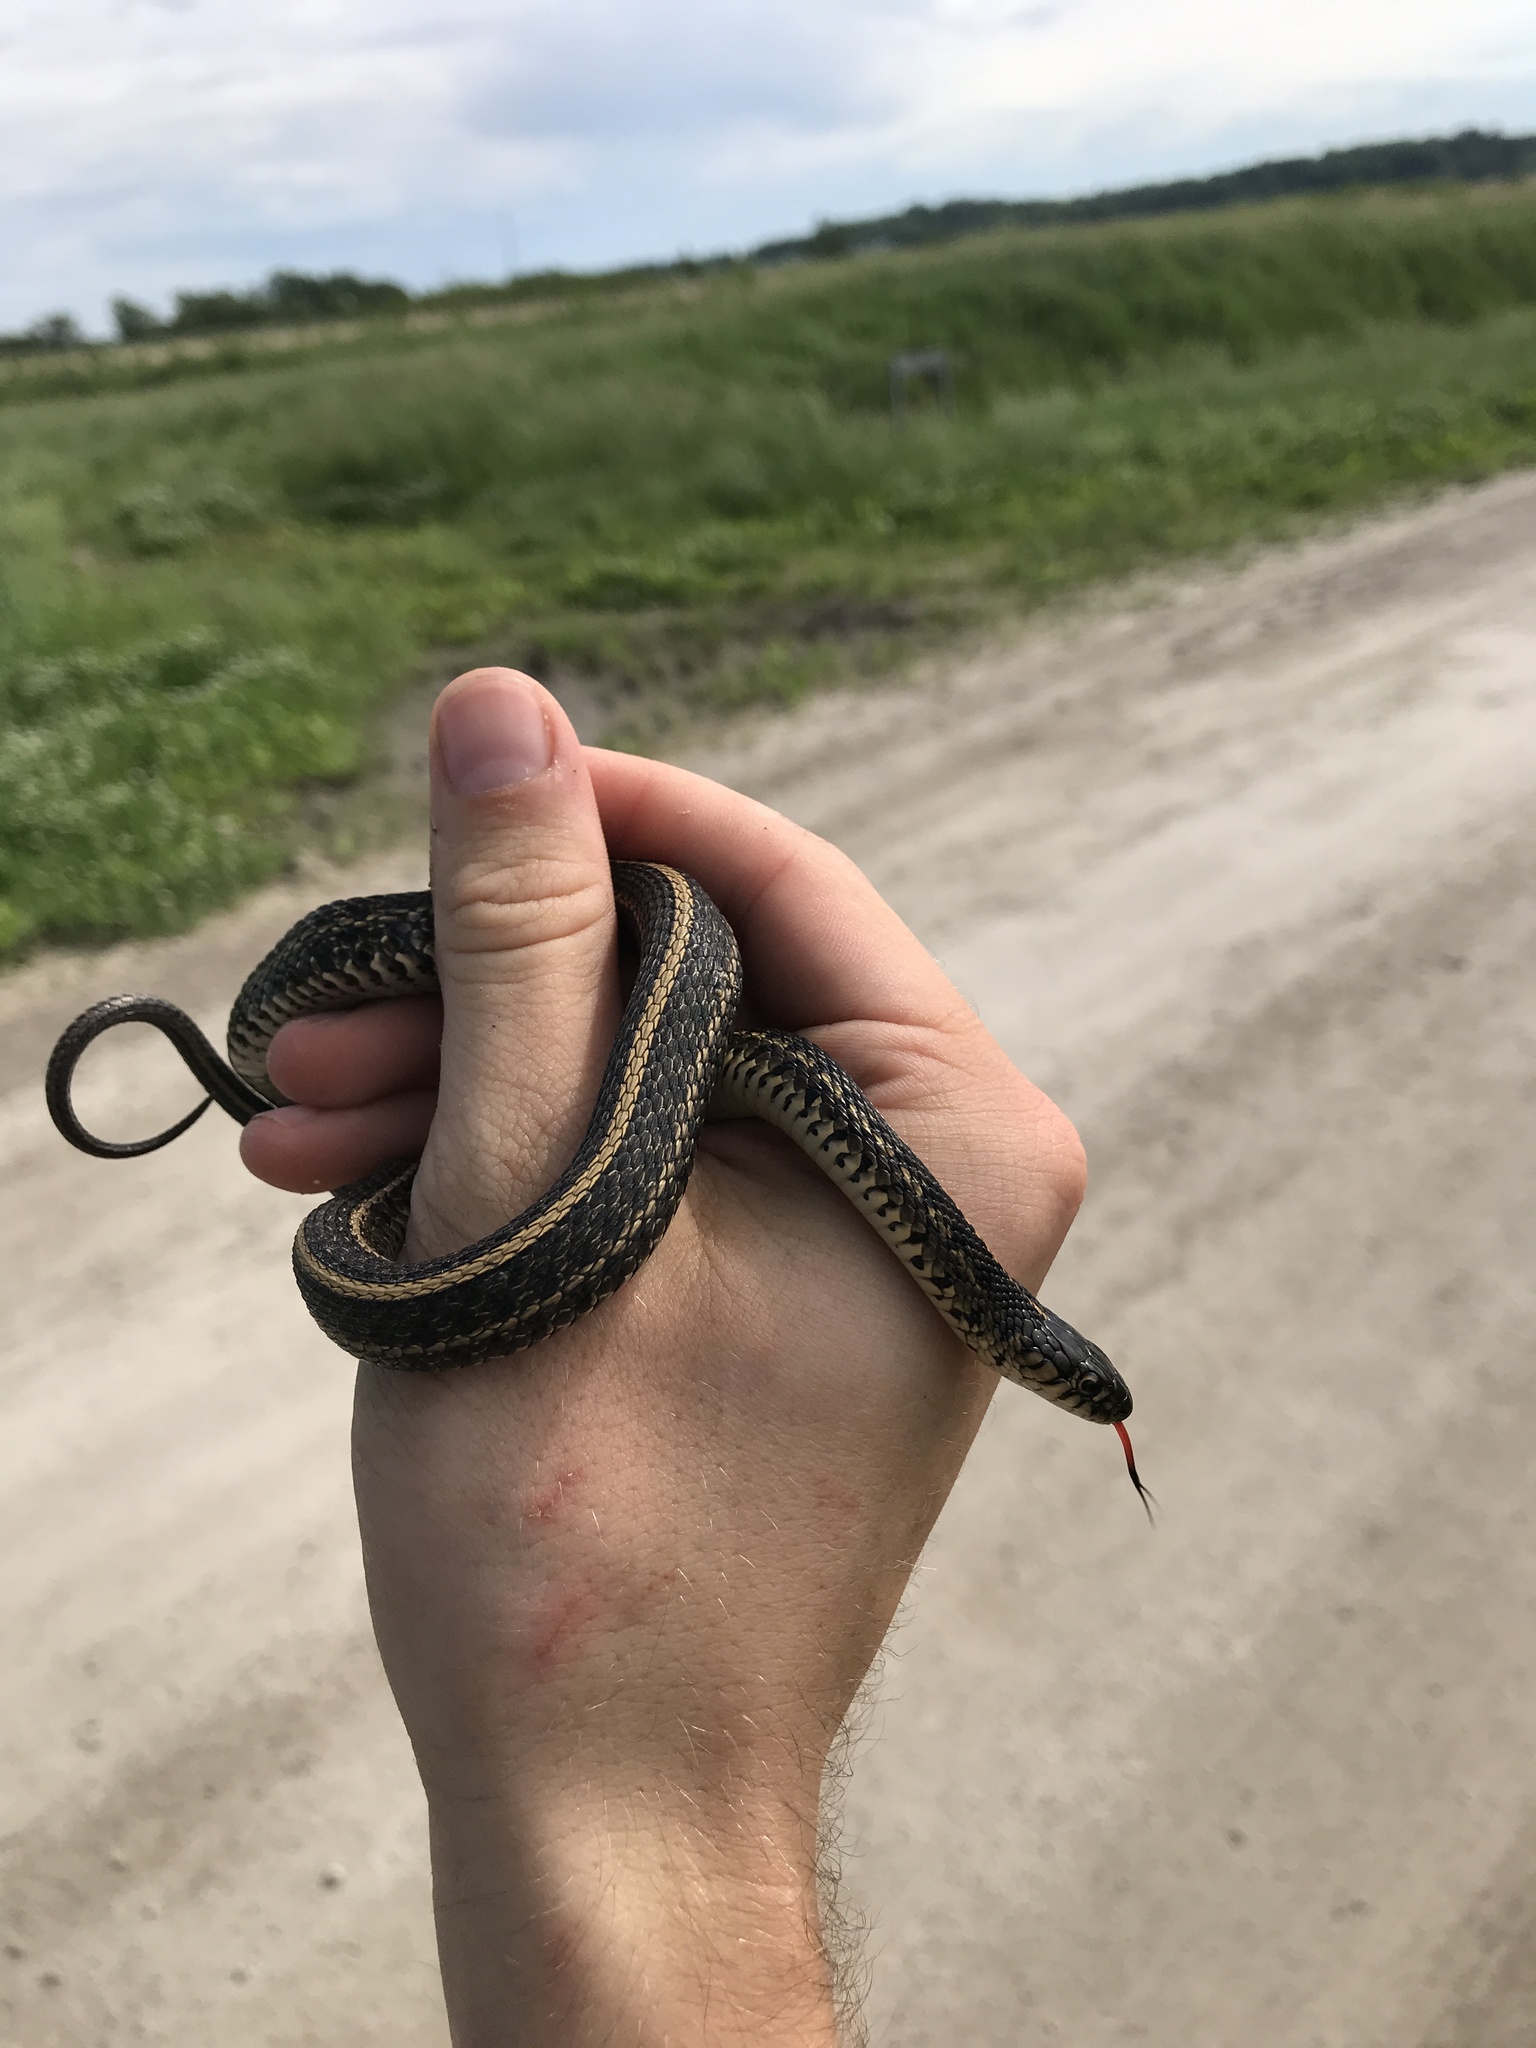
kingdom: Animalia
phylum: Chordata
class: Squamata
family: Colubridae
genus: Thamnophis
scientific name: Thamnophis radix
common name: Plains garter snake
